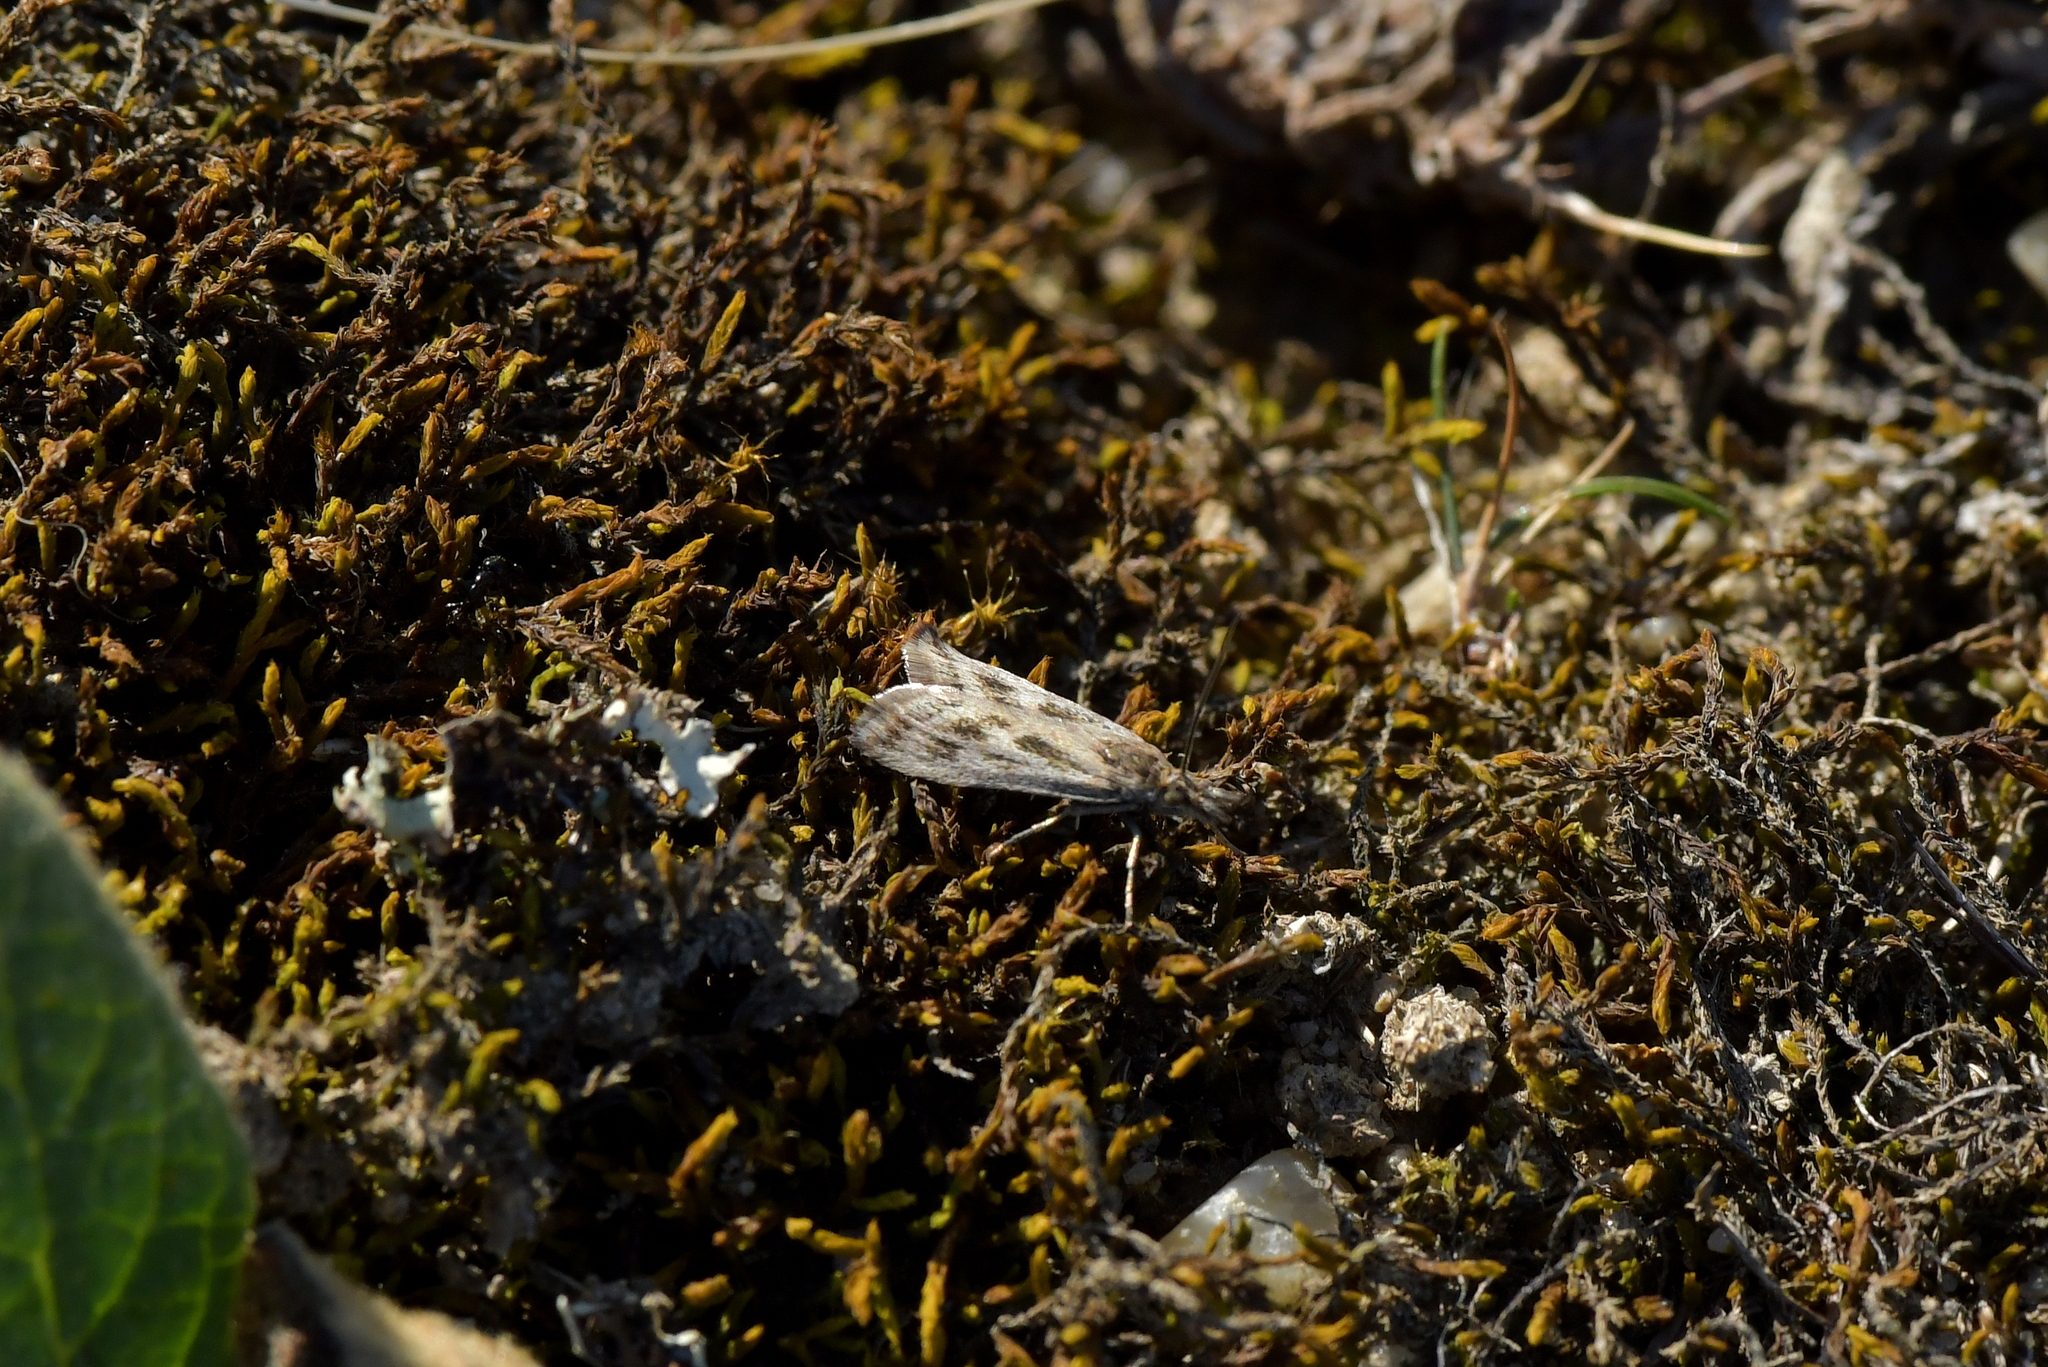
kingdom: Animalia
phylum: Arthropoda
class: Insecta
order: Lepidoptera
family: Crambidae
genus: Orocrambus
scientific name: Orocrambus corruptus
